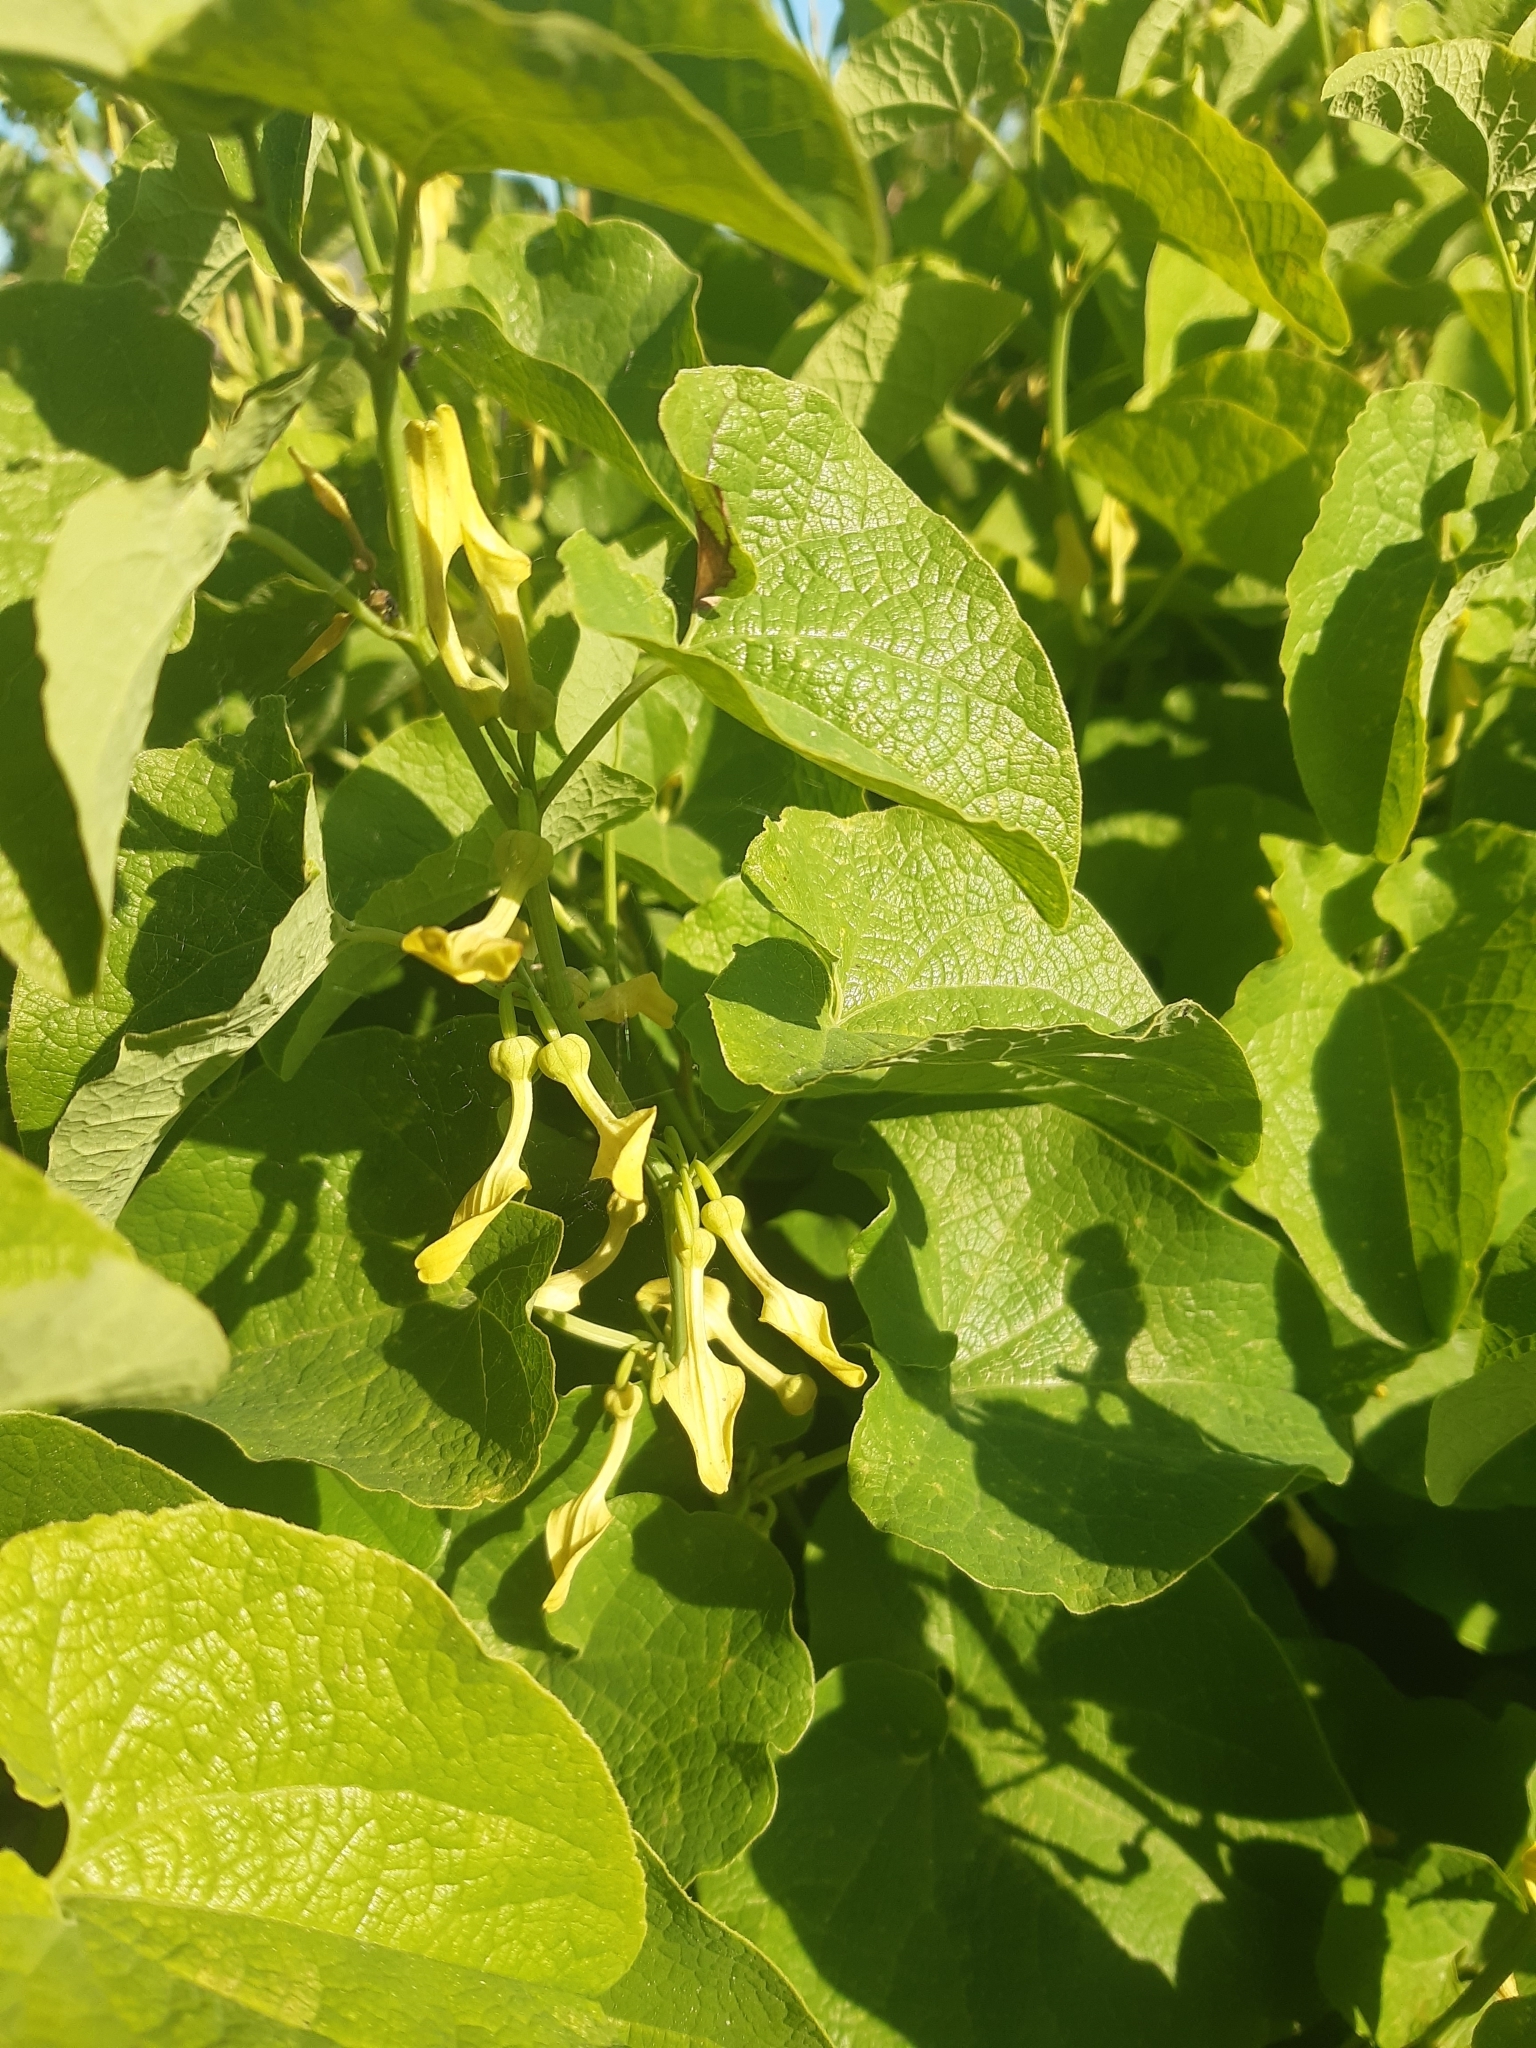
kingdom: Plantae
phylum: Tracheophyta
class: Magnoliopsida
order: Piperales
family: Aristolochiaceae
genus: Aristolochia
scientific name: Aristolochia clematitis
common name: Birthwort
